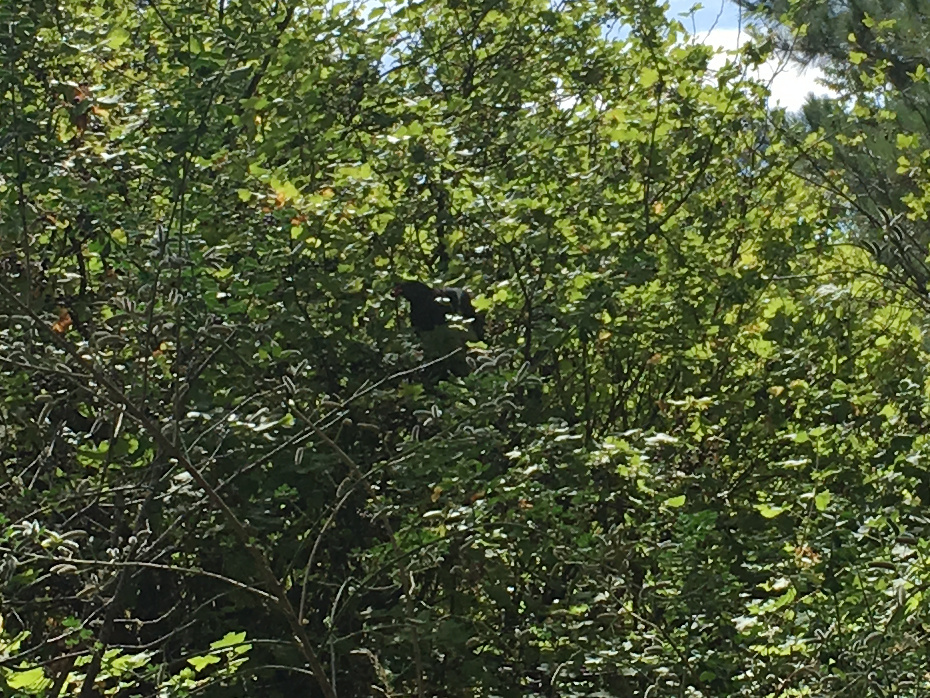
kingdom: Animalia
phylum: Chordata
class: Aves
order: Columbiformes
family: Columbidae
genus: Hemiphaga
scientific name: Hemiphaga novaeseelandiae
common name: New zealand pigeon
